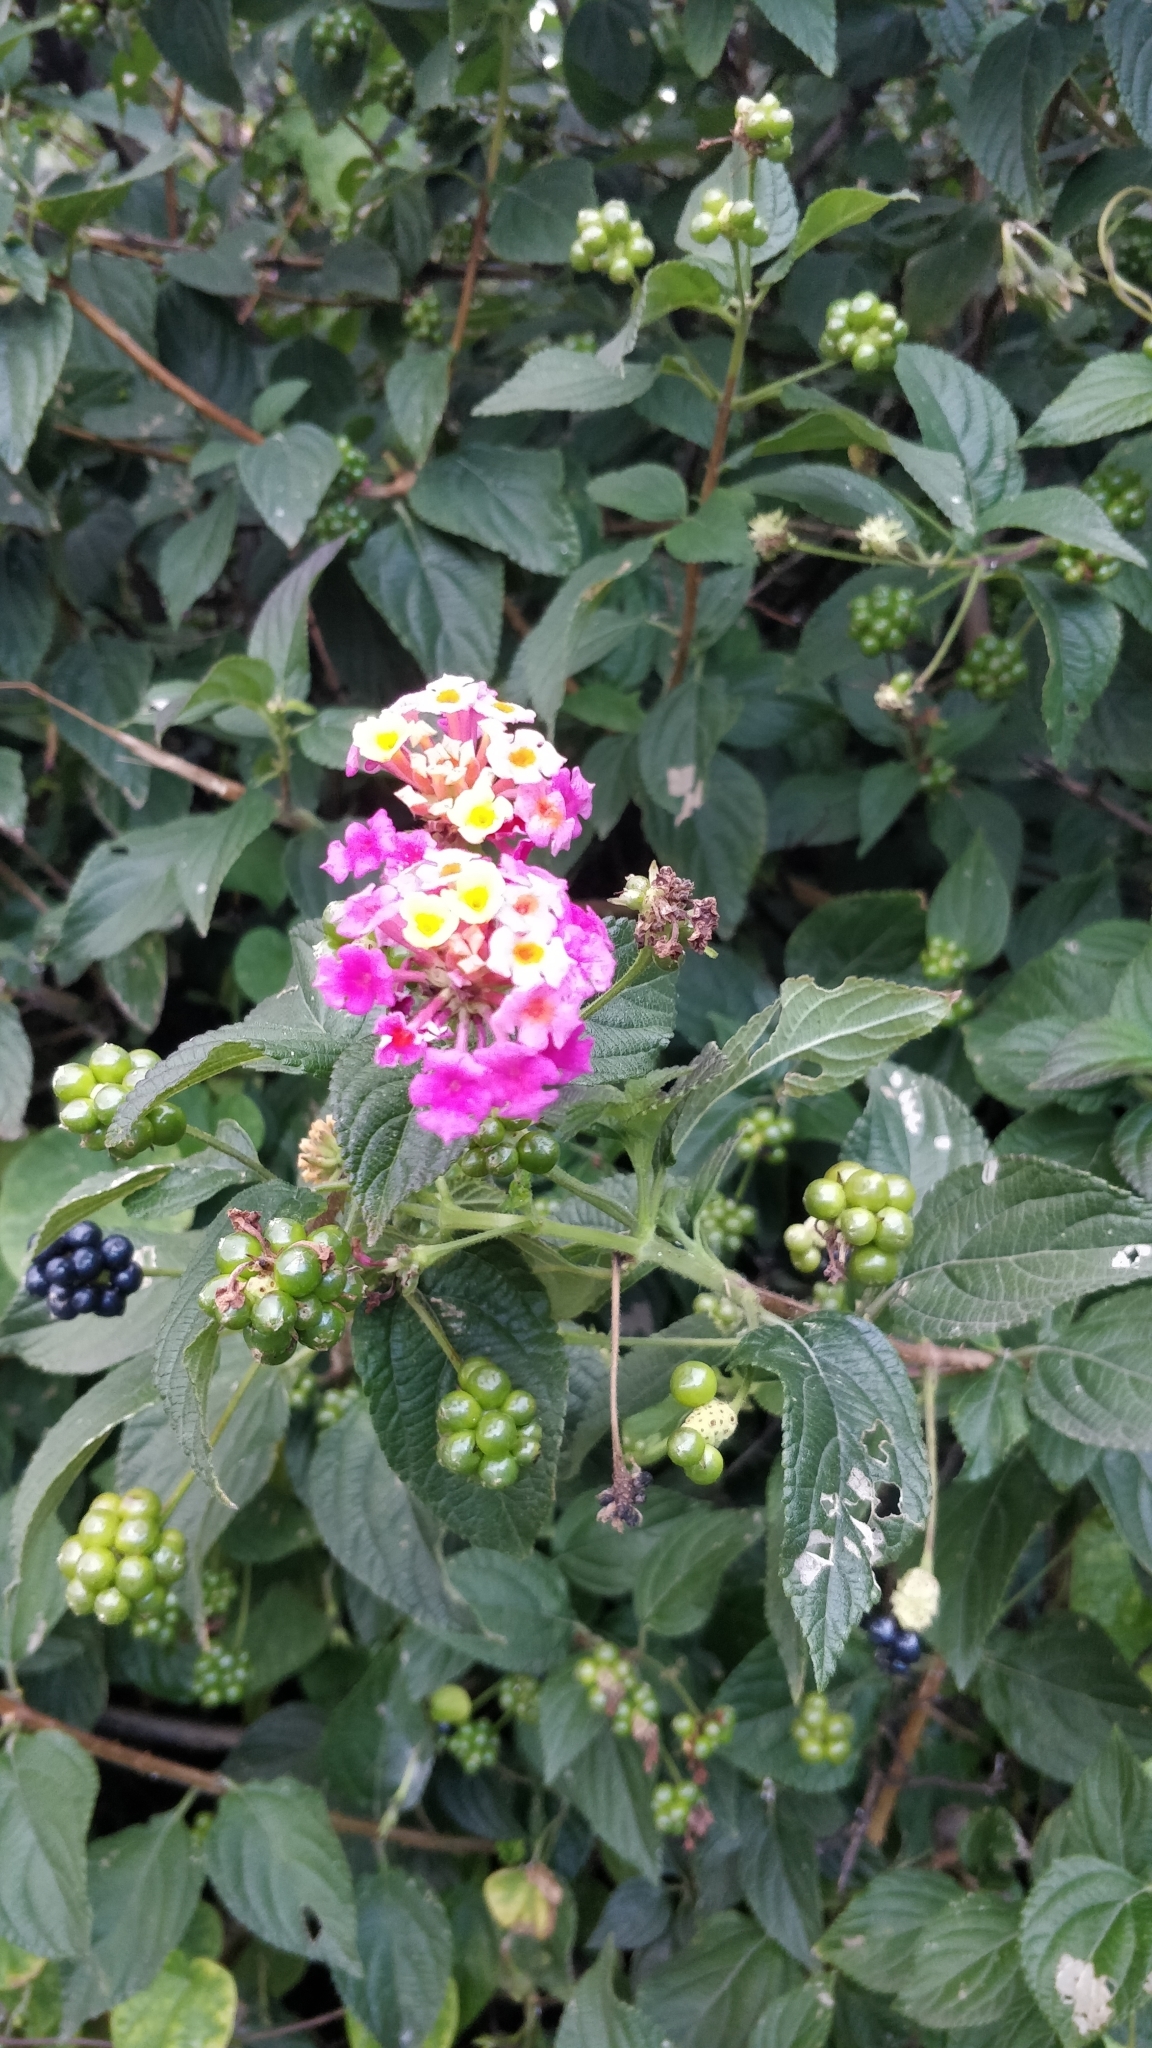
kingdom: Plantae
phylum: Tracheophyta
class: Magnoliopsida
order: Lamiales
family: Verbenaceae
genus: Lantana
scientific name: Lantana camara
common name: Lantana
